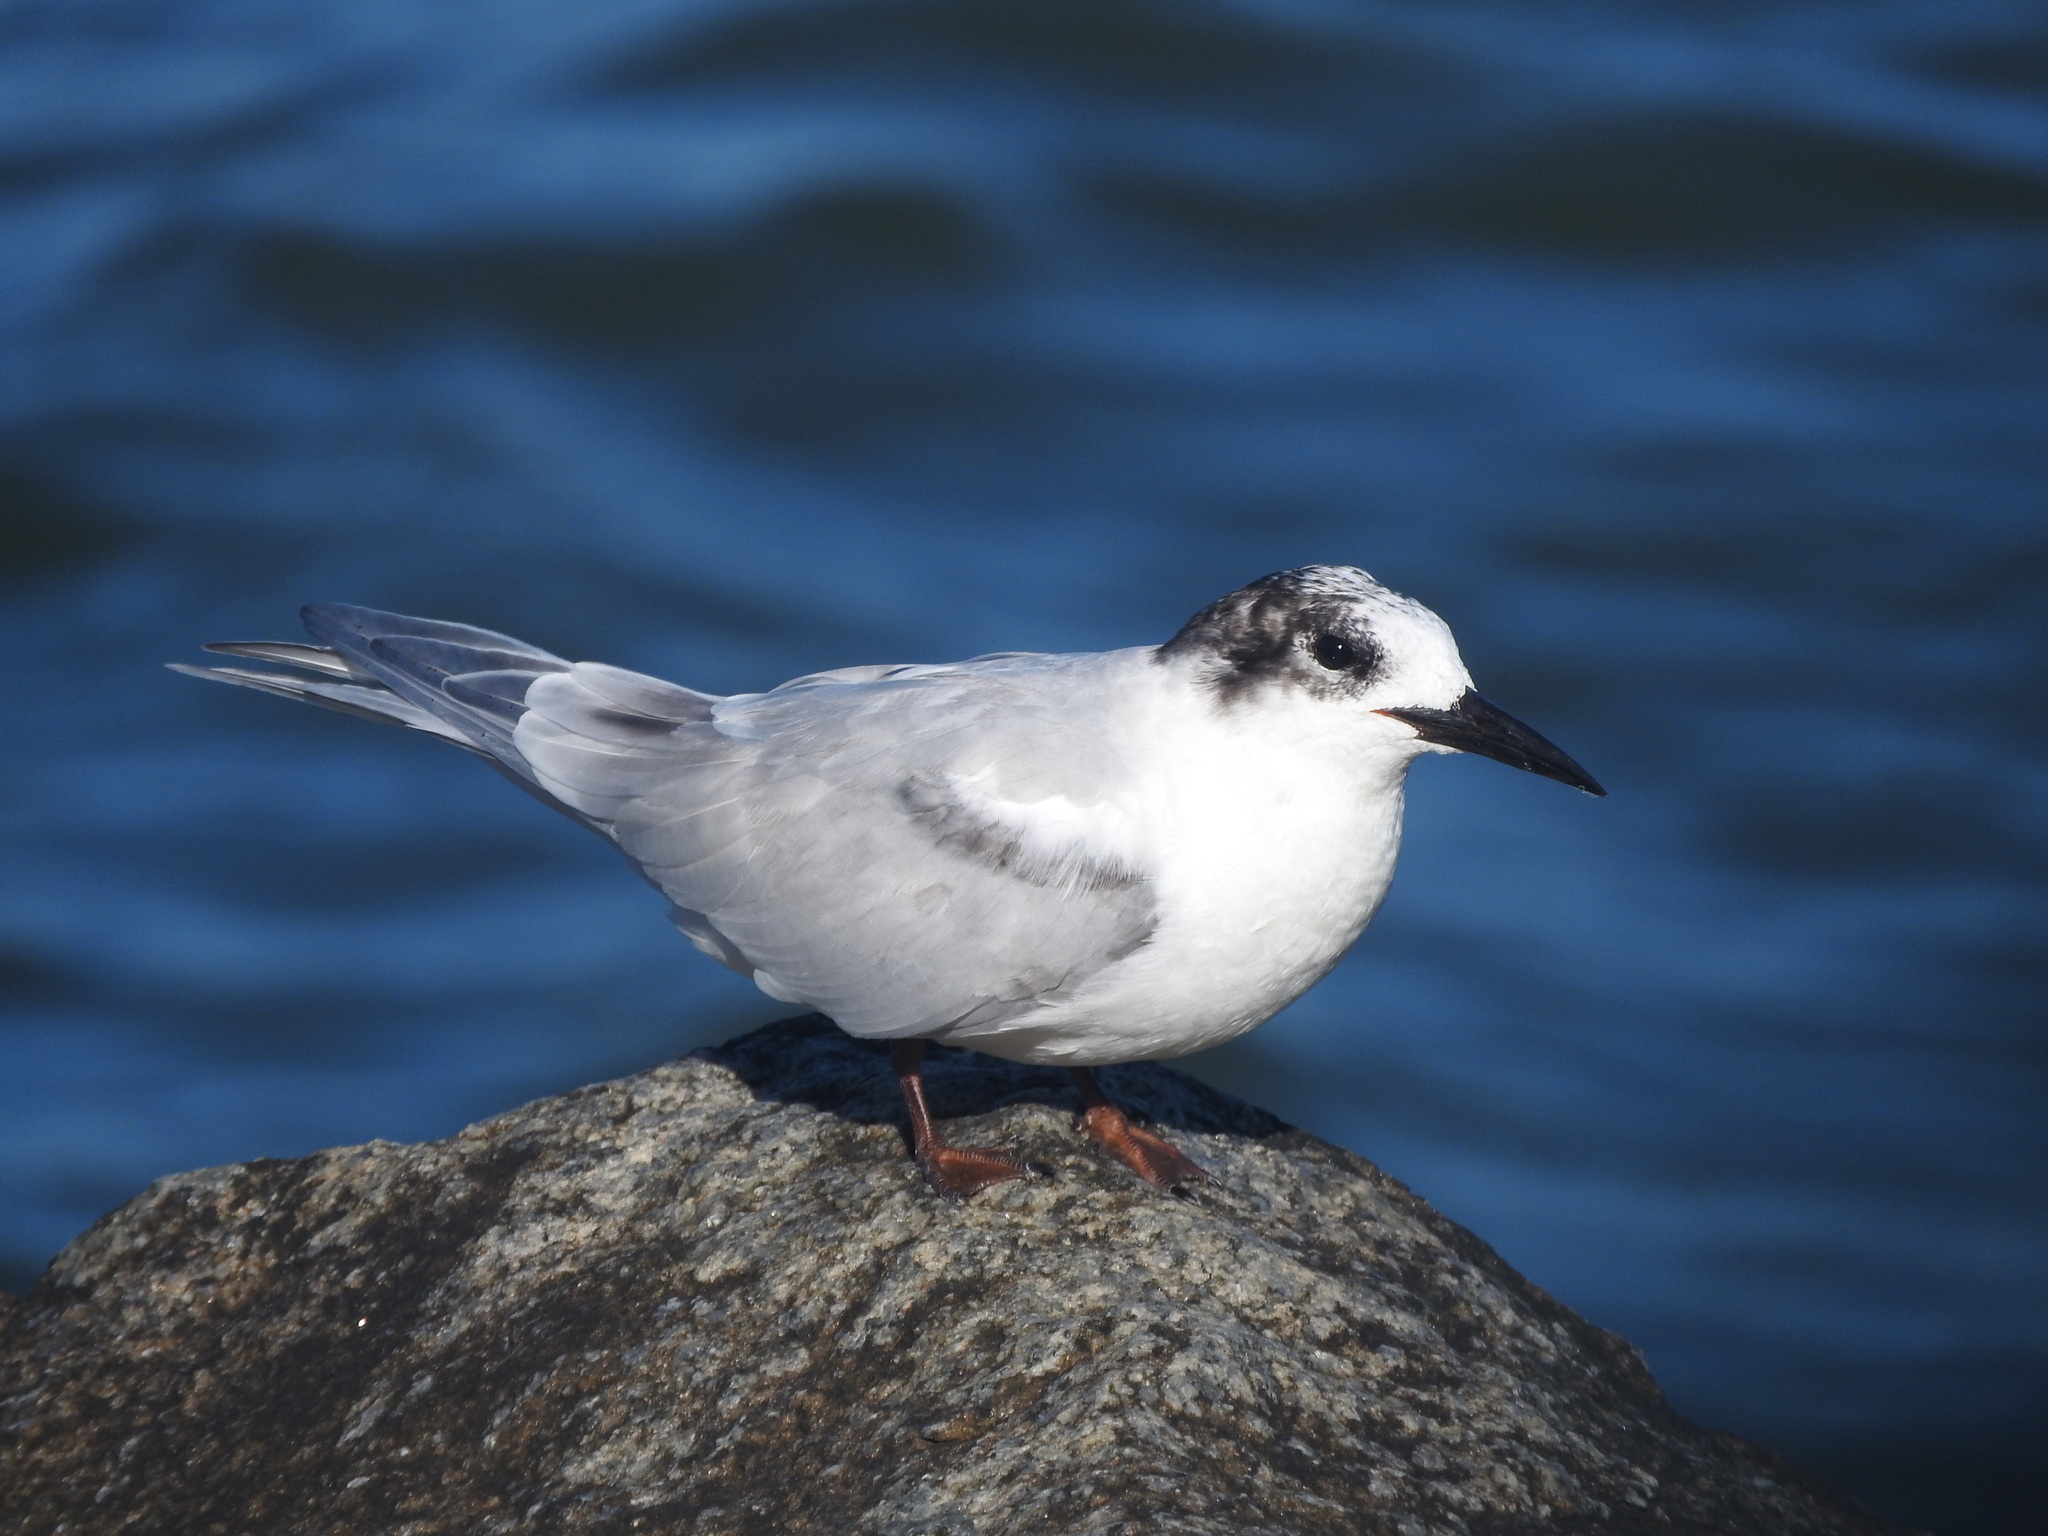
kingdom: Animalia
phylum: Chordata
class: Aves
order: Charadriiformes
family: Laridae
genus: Sterna
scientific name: Sterna hirundo
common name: Common tern
